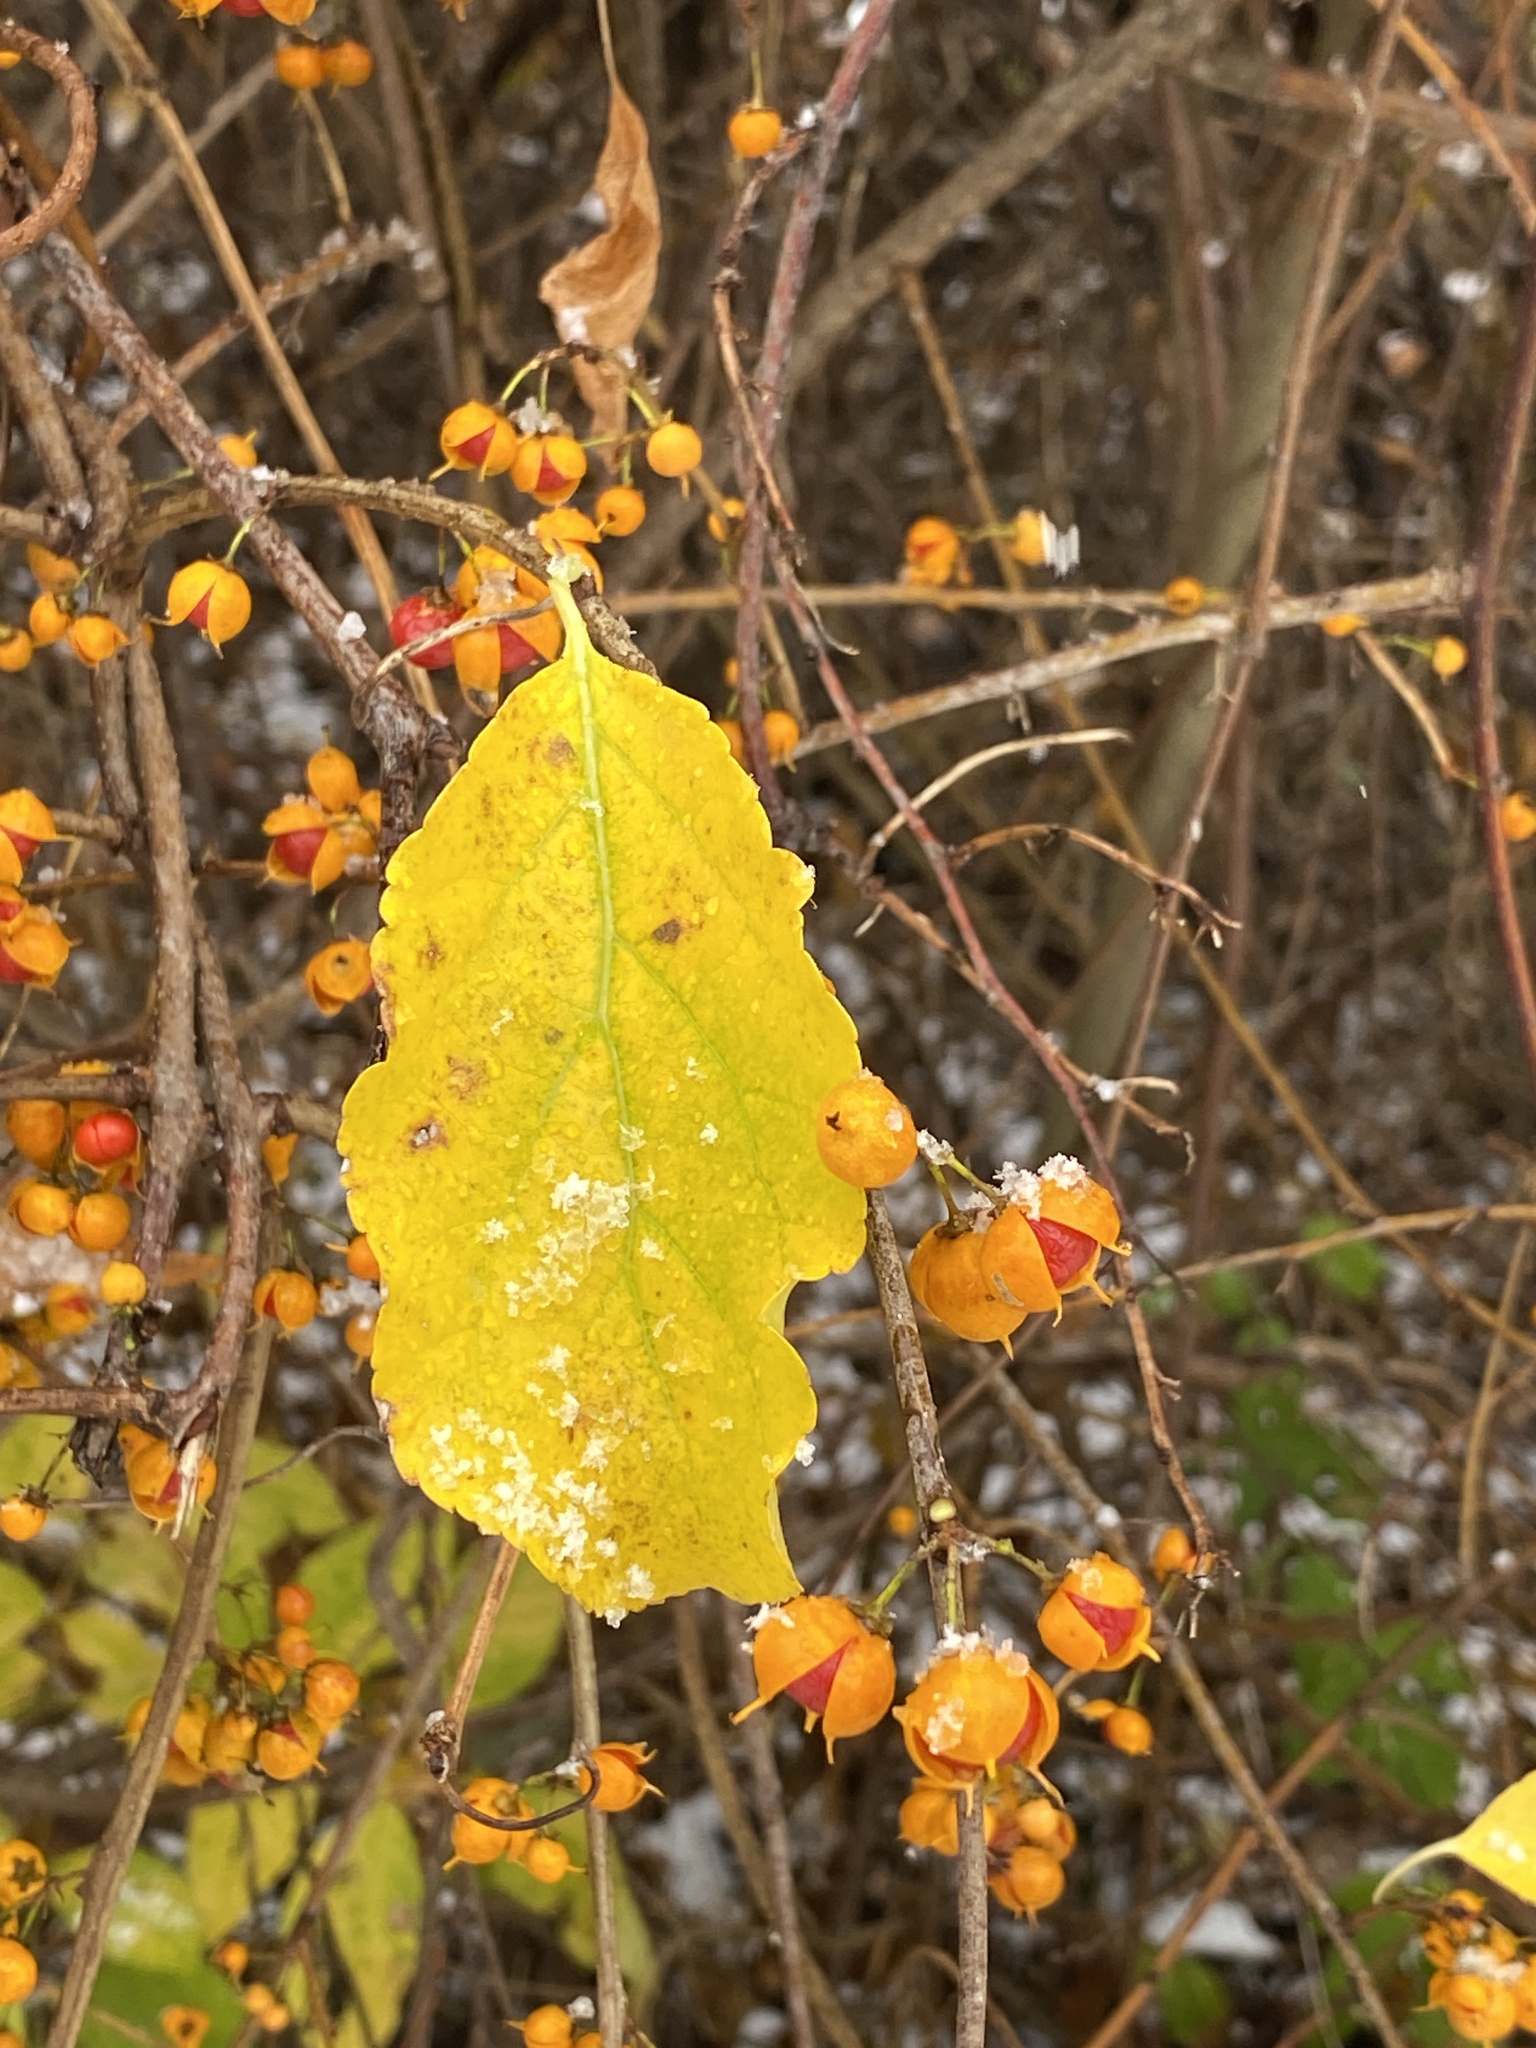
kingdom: Plantae
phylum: Tracheophyta
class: Magnoliopsida
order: Celastrales
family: Celastraceae
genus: Celastrus
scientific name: Celastrus orbiculatus
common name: Oriental bittersweet
